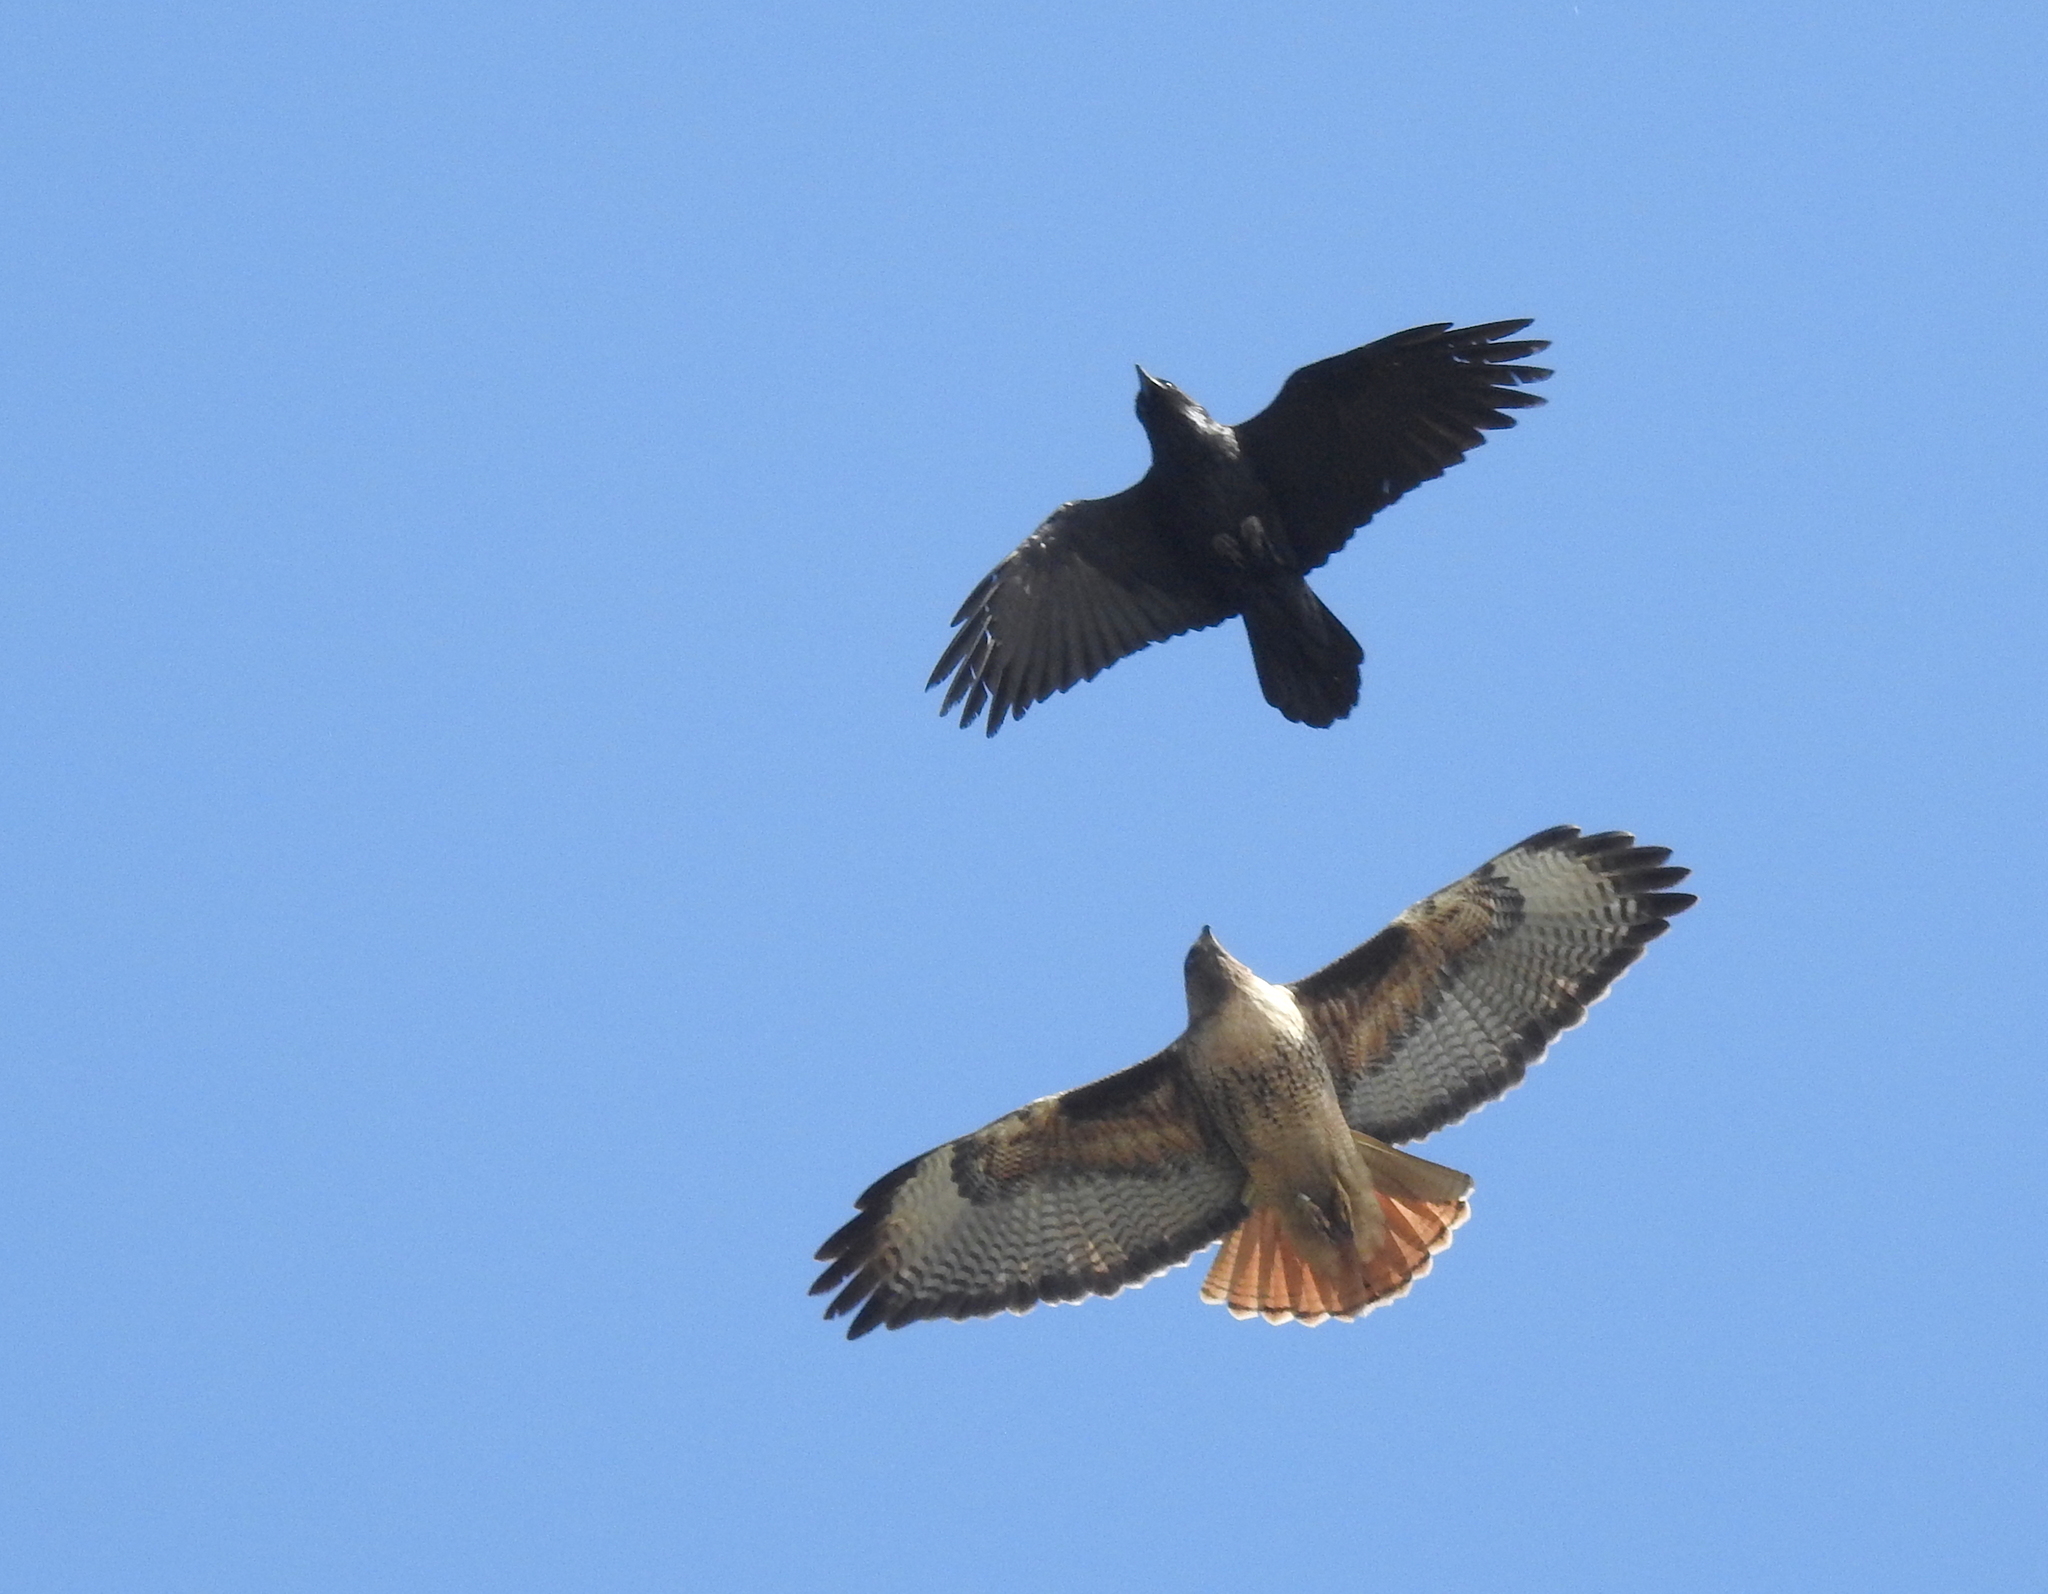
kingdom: Animalia
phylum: Chordata
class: Aves
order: Accipitriformes
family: Accipitridae
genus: Buteo
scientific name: Buteo jamaicensis
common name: Red-tailed hawk
